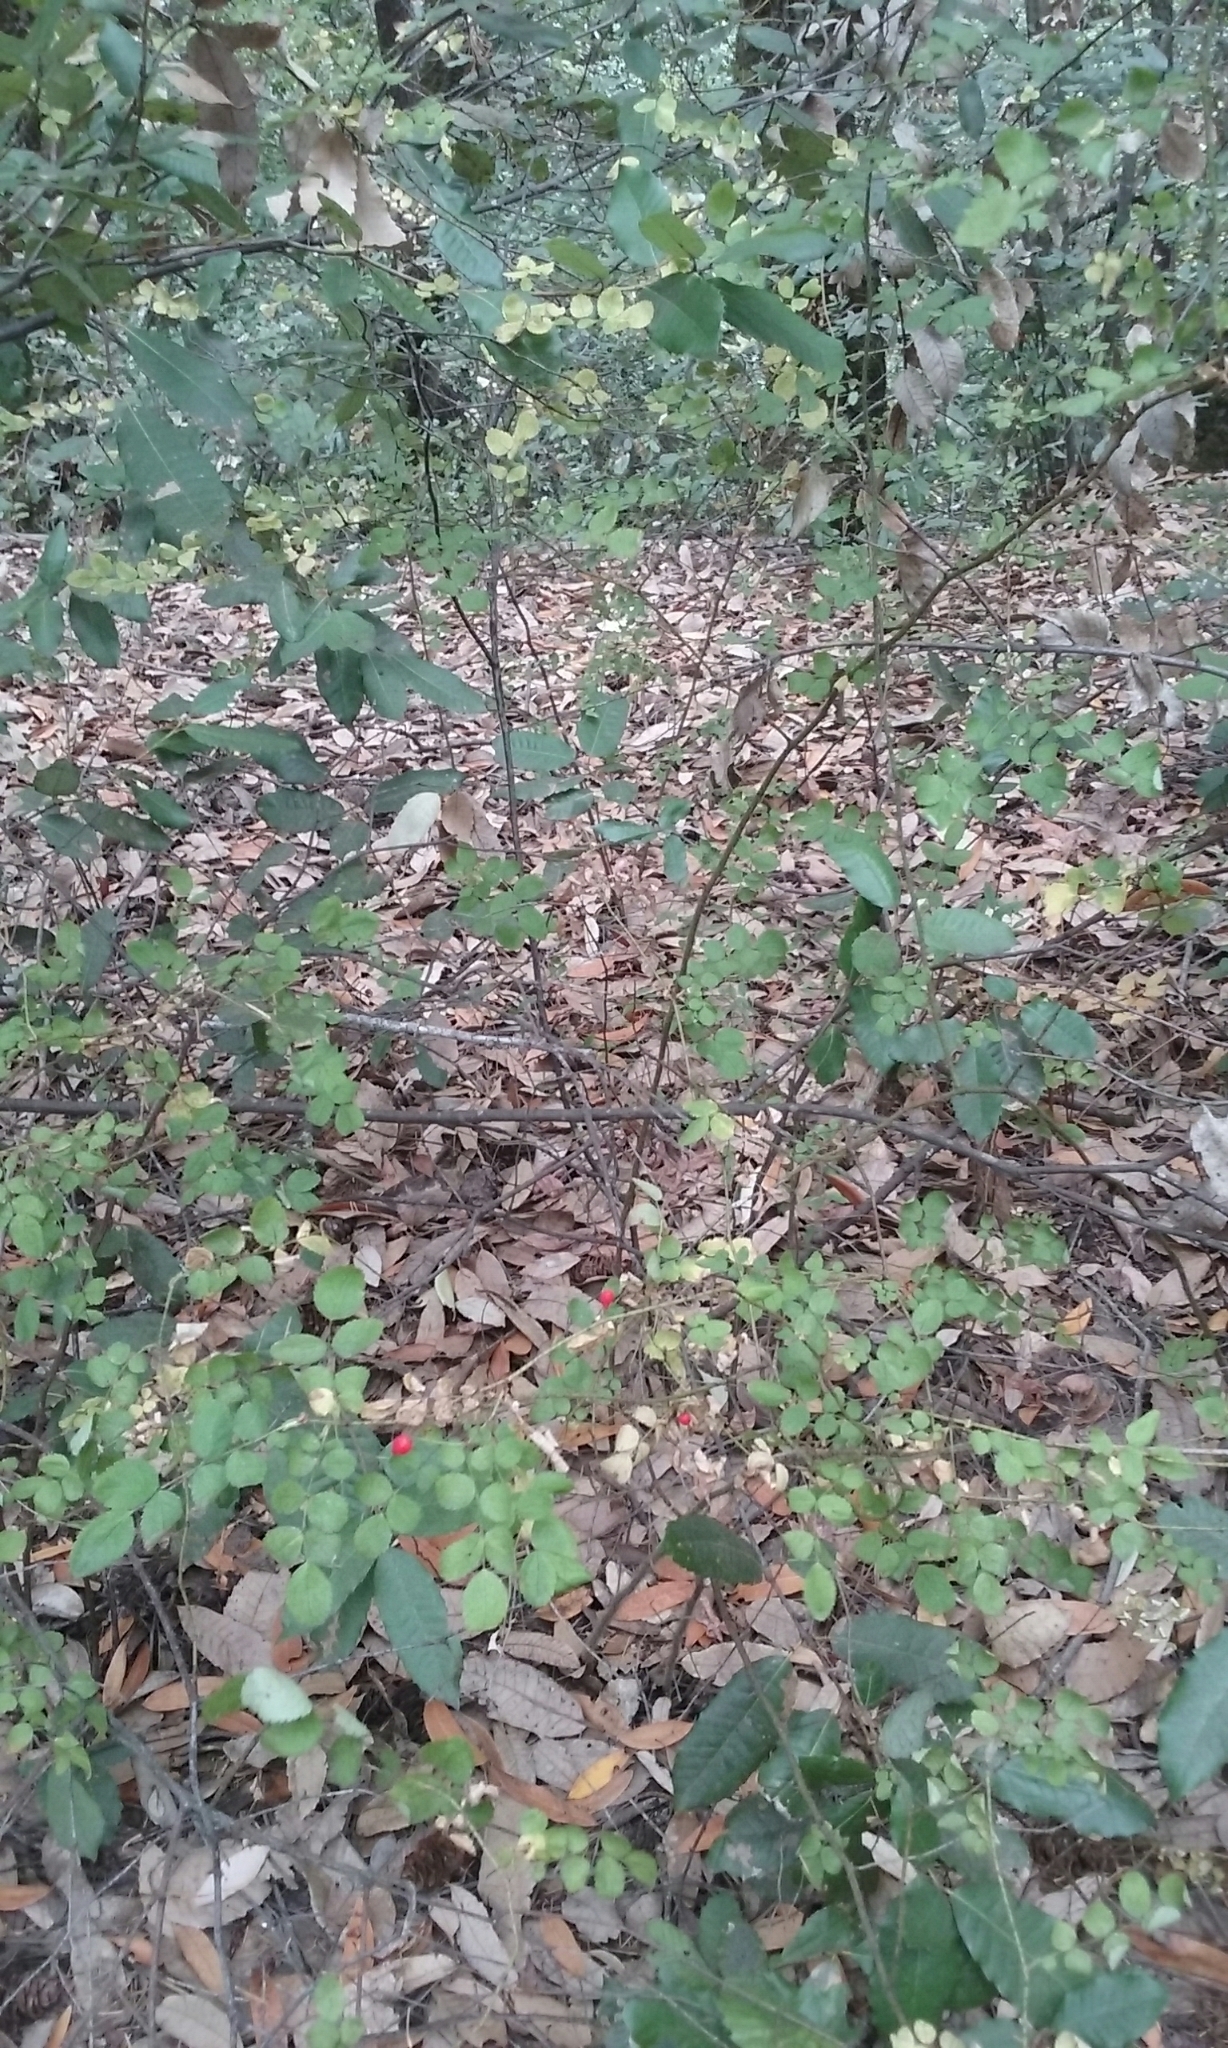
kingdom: Plantae
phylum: Tracheophyta
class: Magnoliopsida
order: Rosales
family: Rosaceae
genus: Rosa
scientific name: Rosa gymnocarpa
